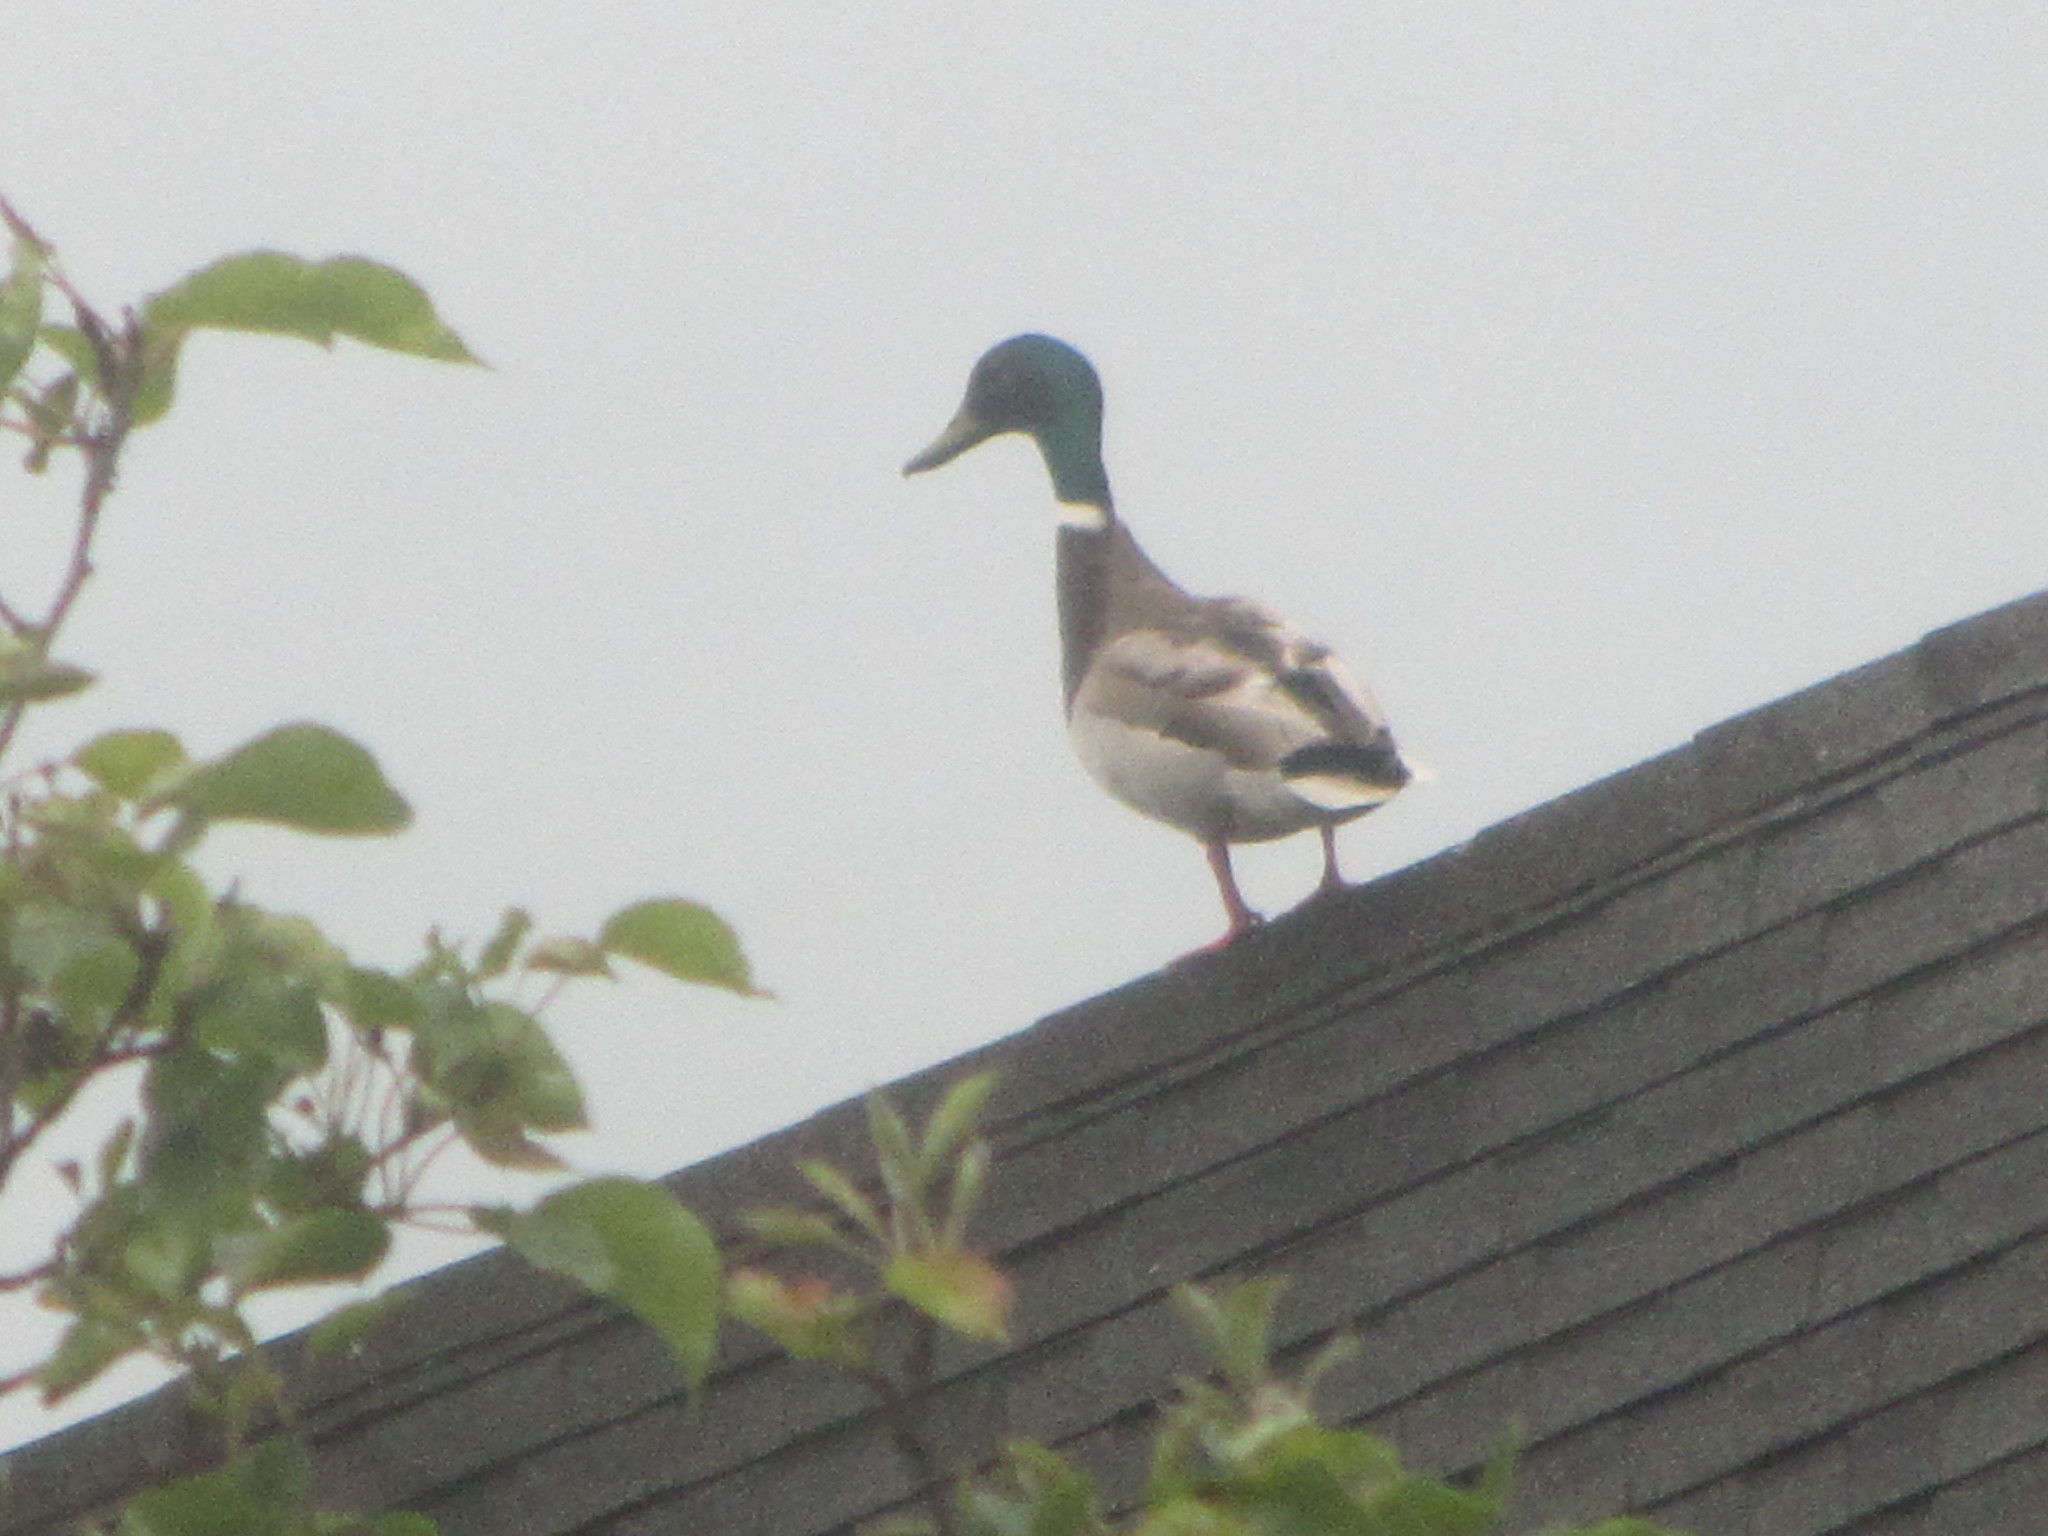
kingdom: Animalia
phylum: Chordata
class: Aves
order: Anseriformes
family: Anatidae
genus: Anas
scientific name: Anas platyrhynchos
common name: Mallard
